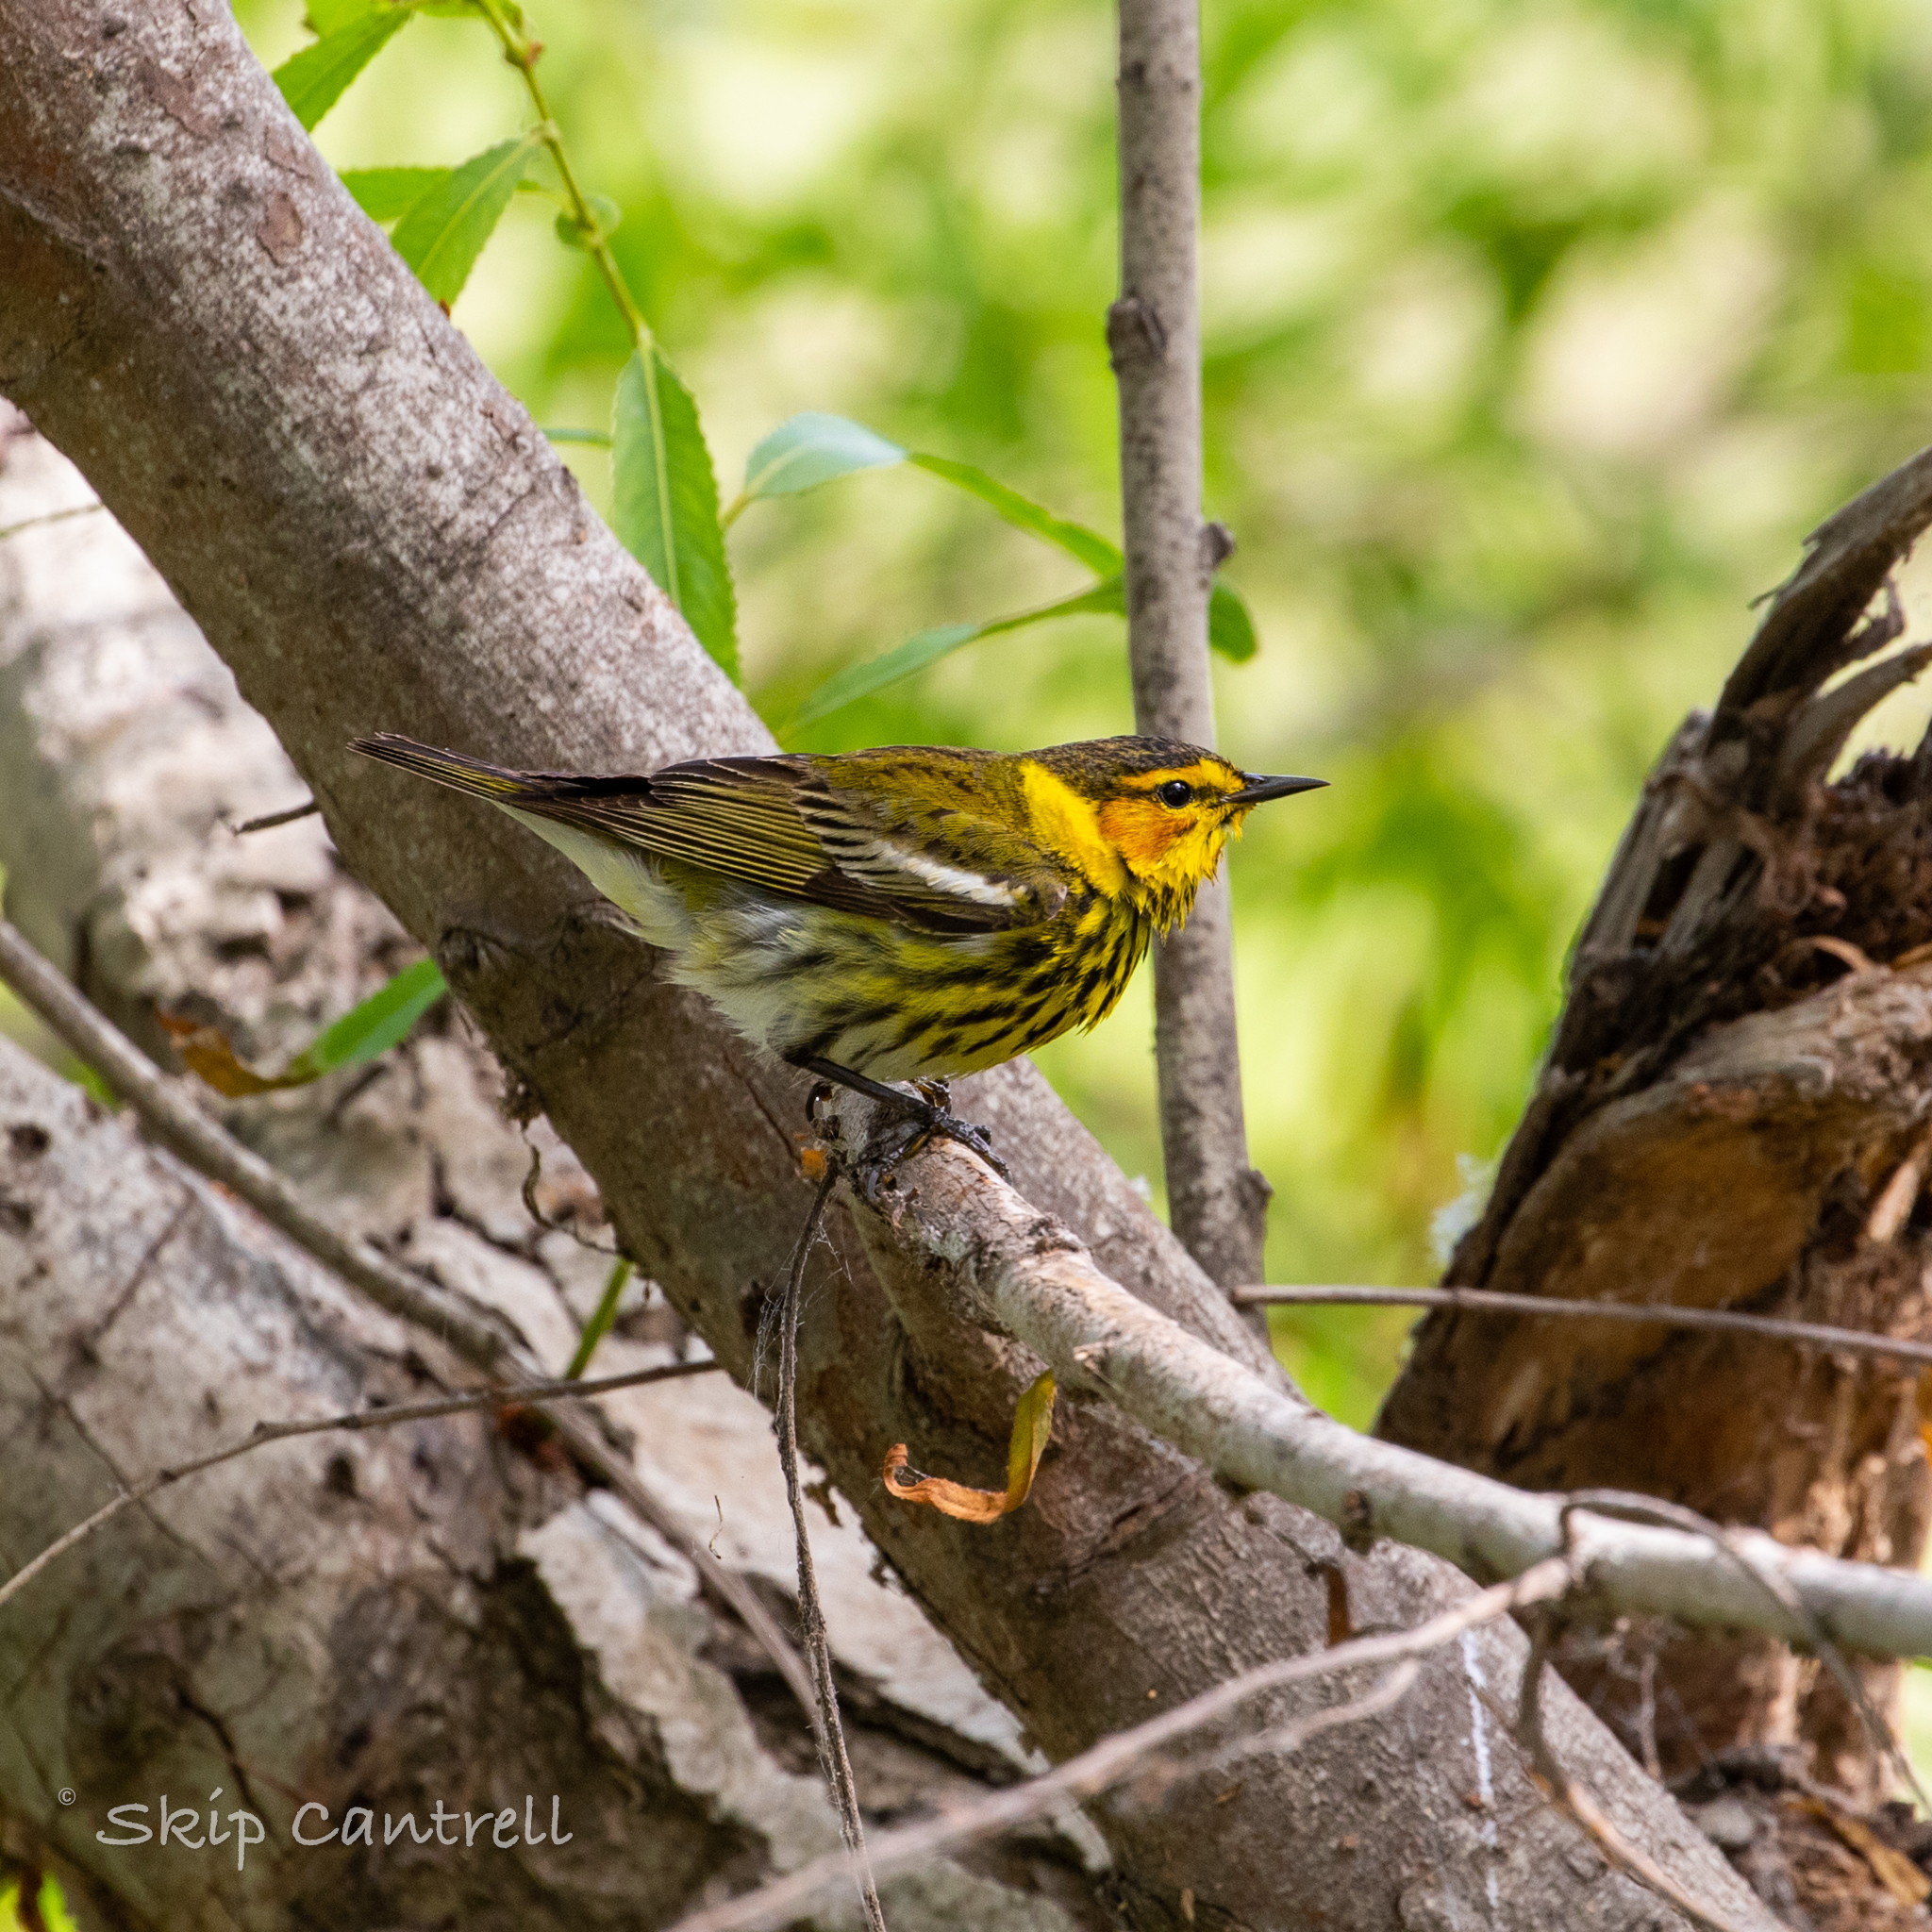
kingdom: Animalia
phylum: Chordata
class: Aves
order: Passeriformes
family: Parulidae
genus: Setophaga
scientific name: Setophaga tigrina
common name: Cape may warbler
